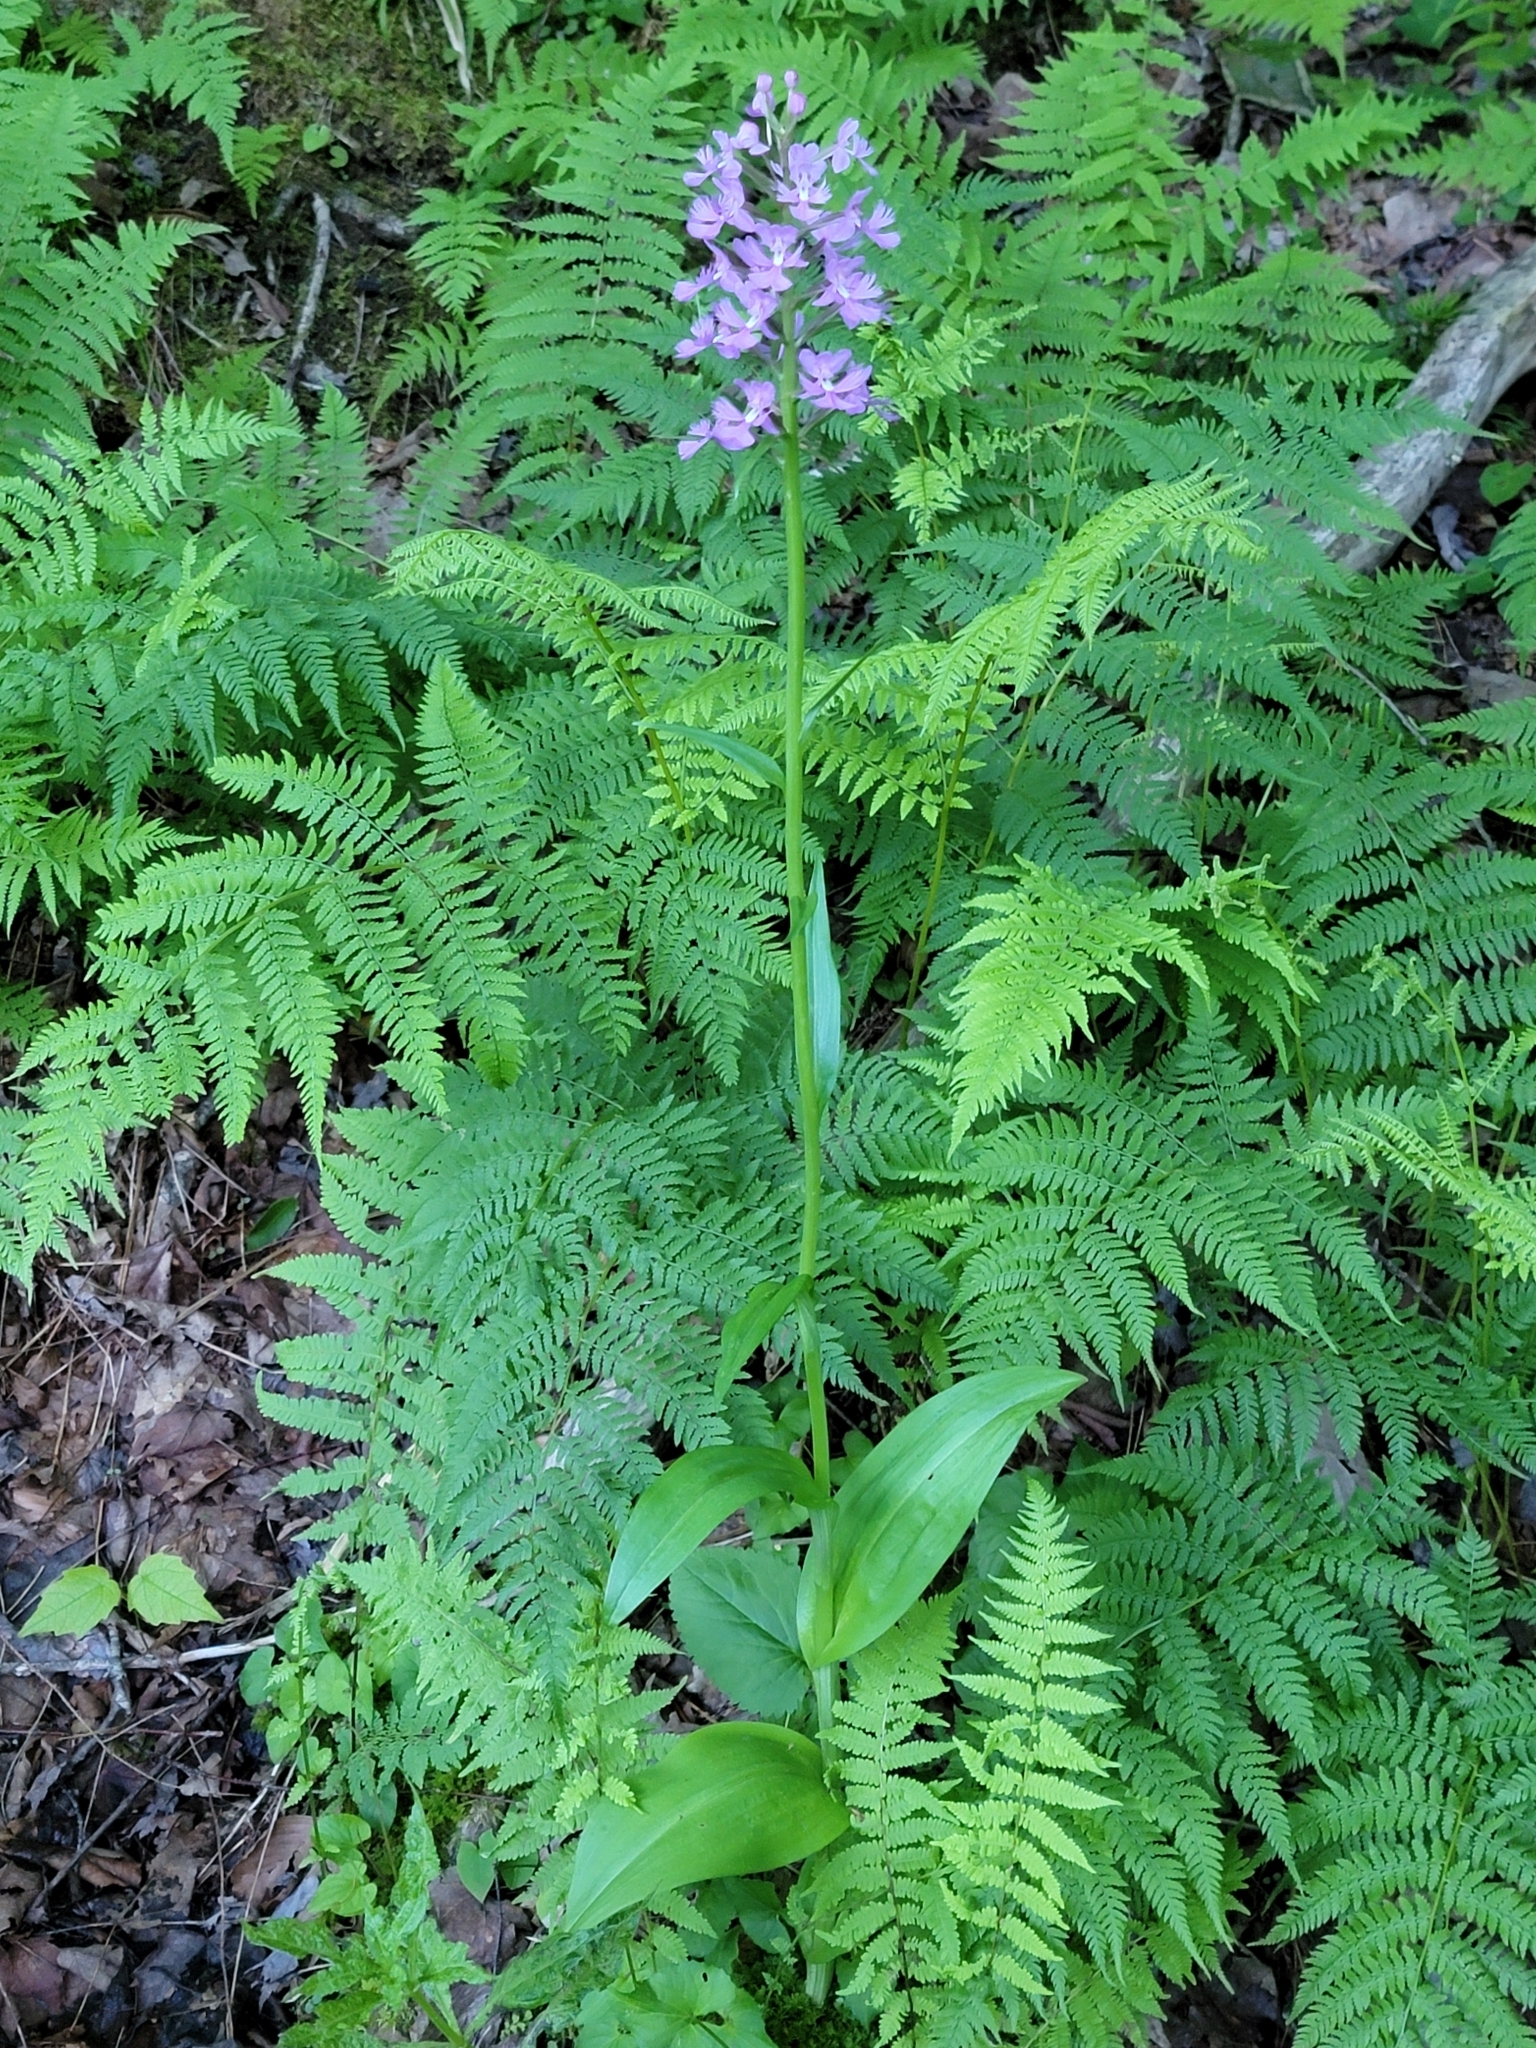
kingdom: Plantae
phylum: Tracheophyta
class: Liliopsida
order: Asparagales
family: Orchidaceae
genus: Platanthera
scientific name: Platanthera grandiflora
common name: Greater purple fringed orchid
